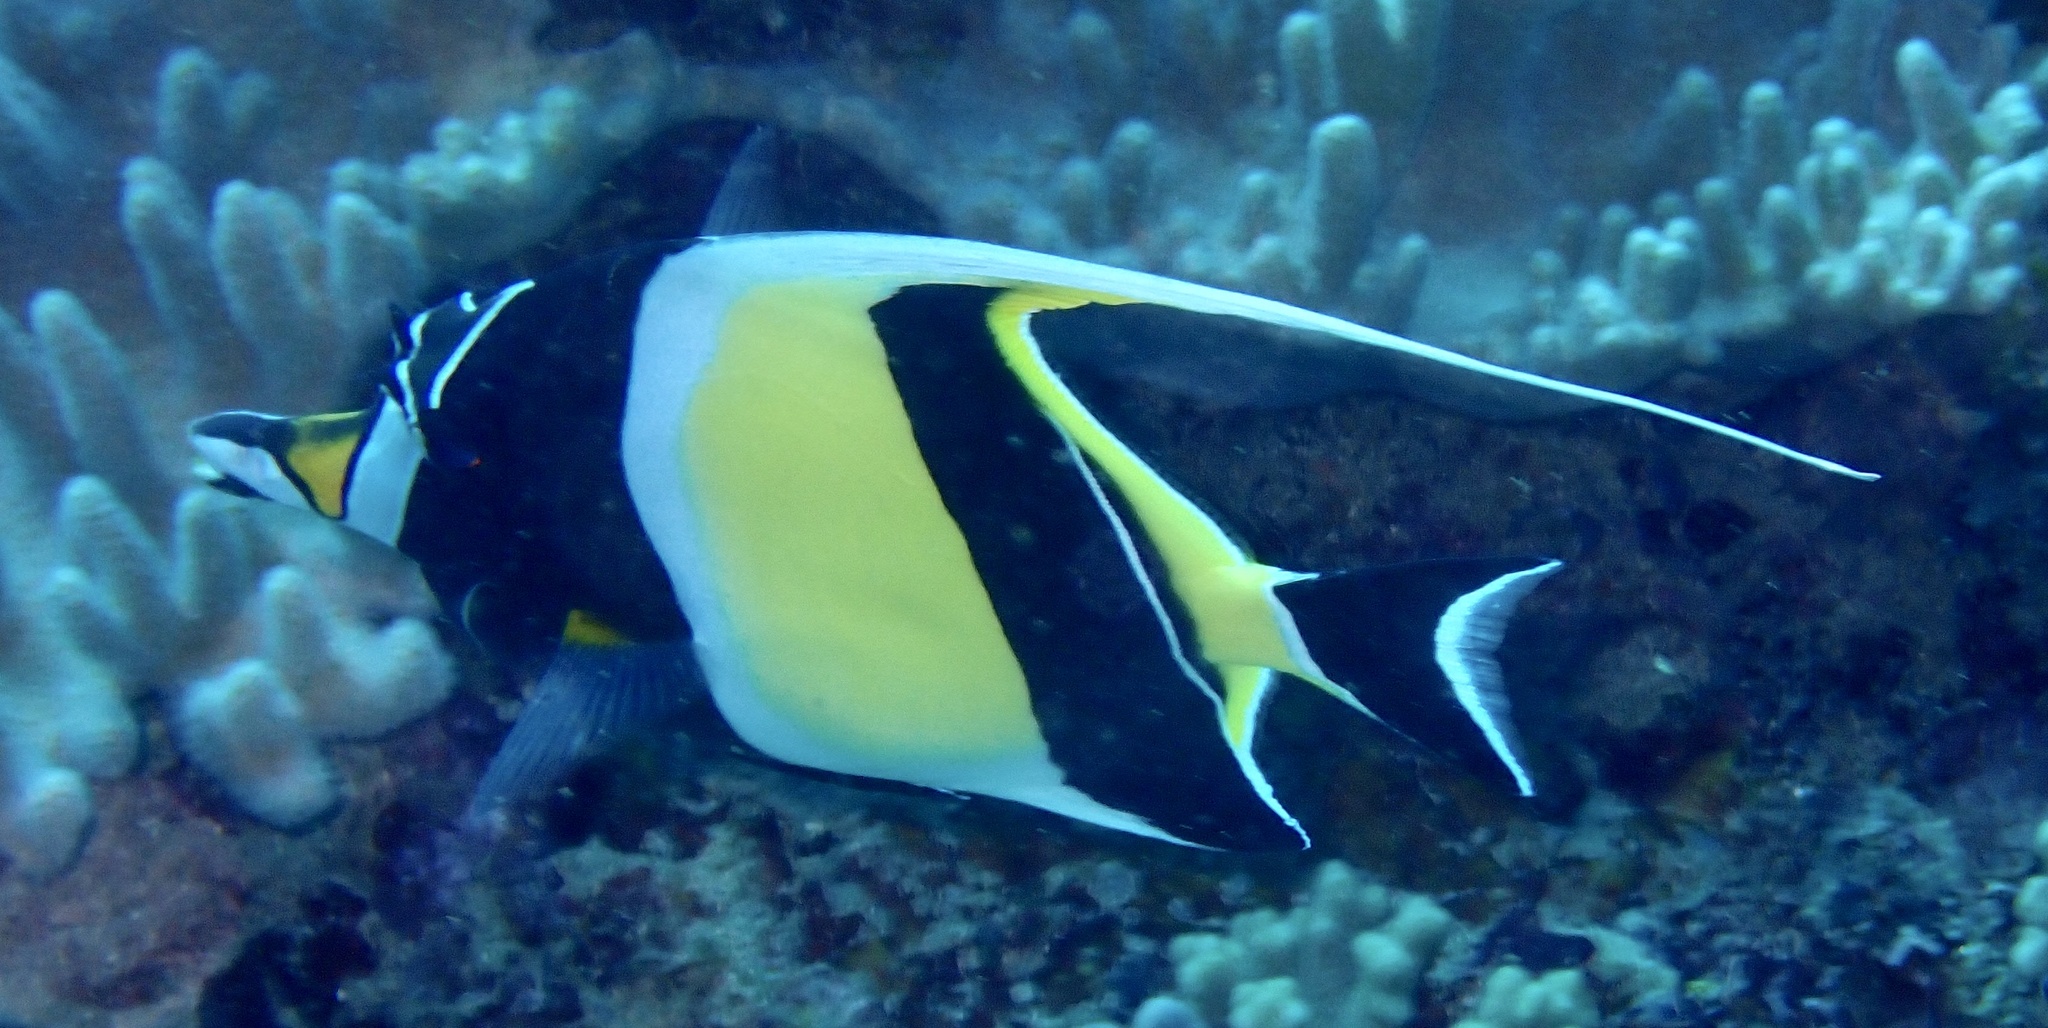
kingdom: Animalia
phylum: Chordata
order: Perciformes
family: Zanclidae
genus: Zanclus
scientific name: Zanclus cornutus
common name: Moorish idol
